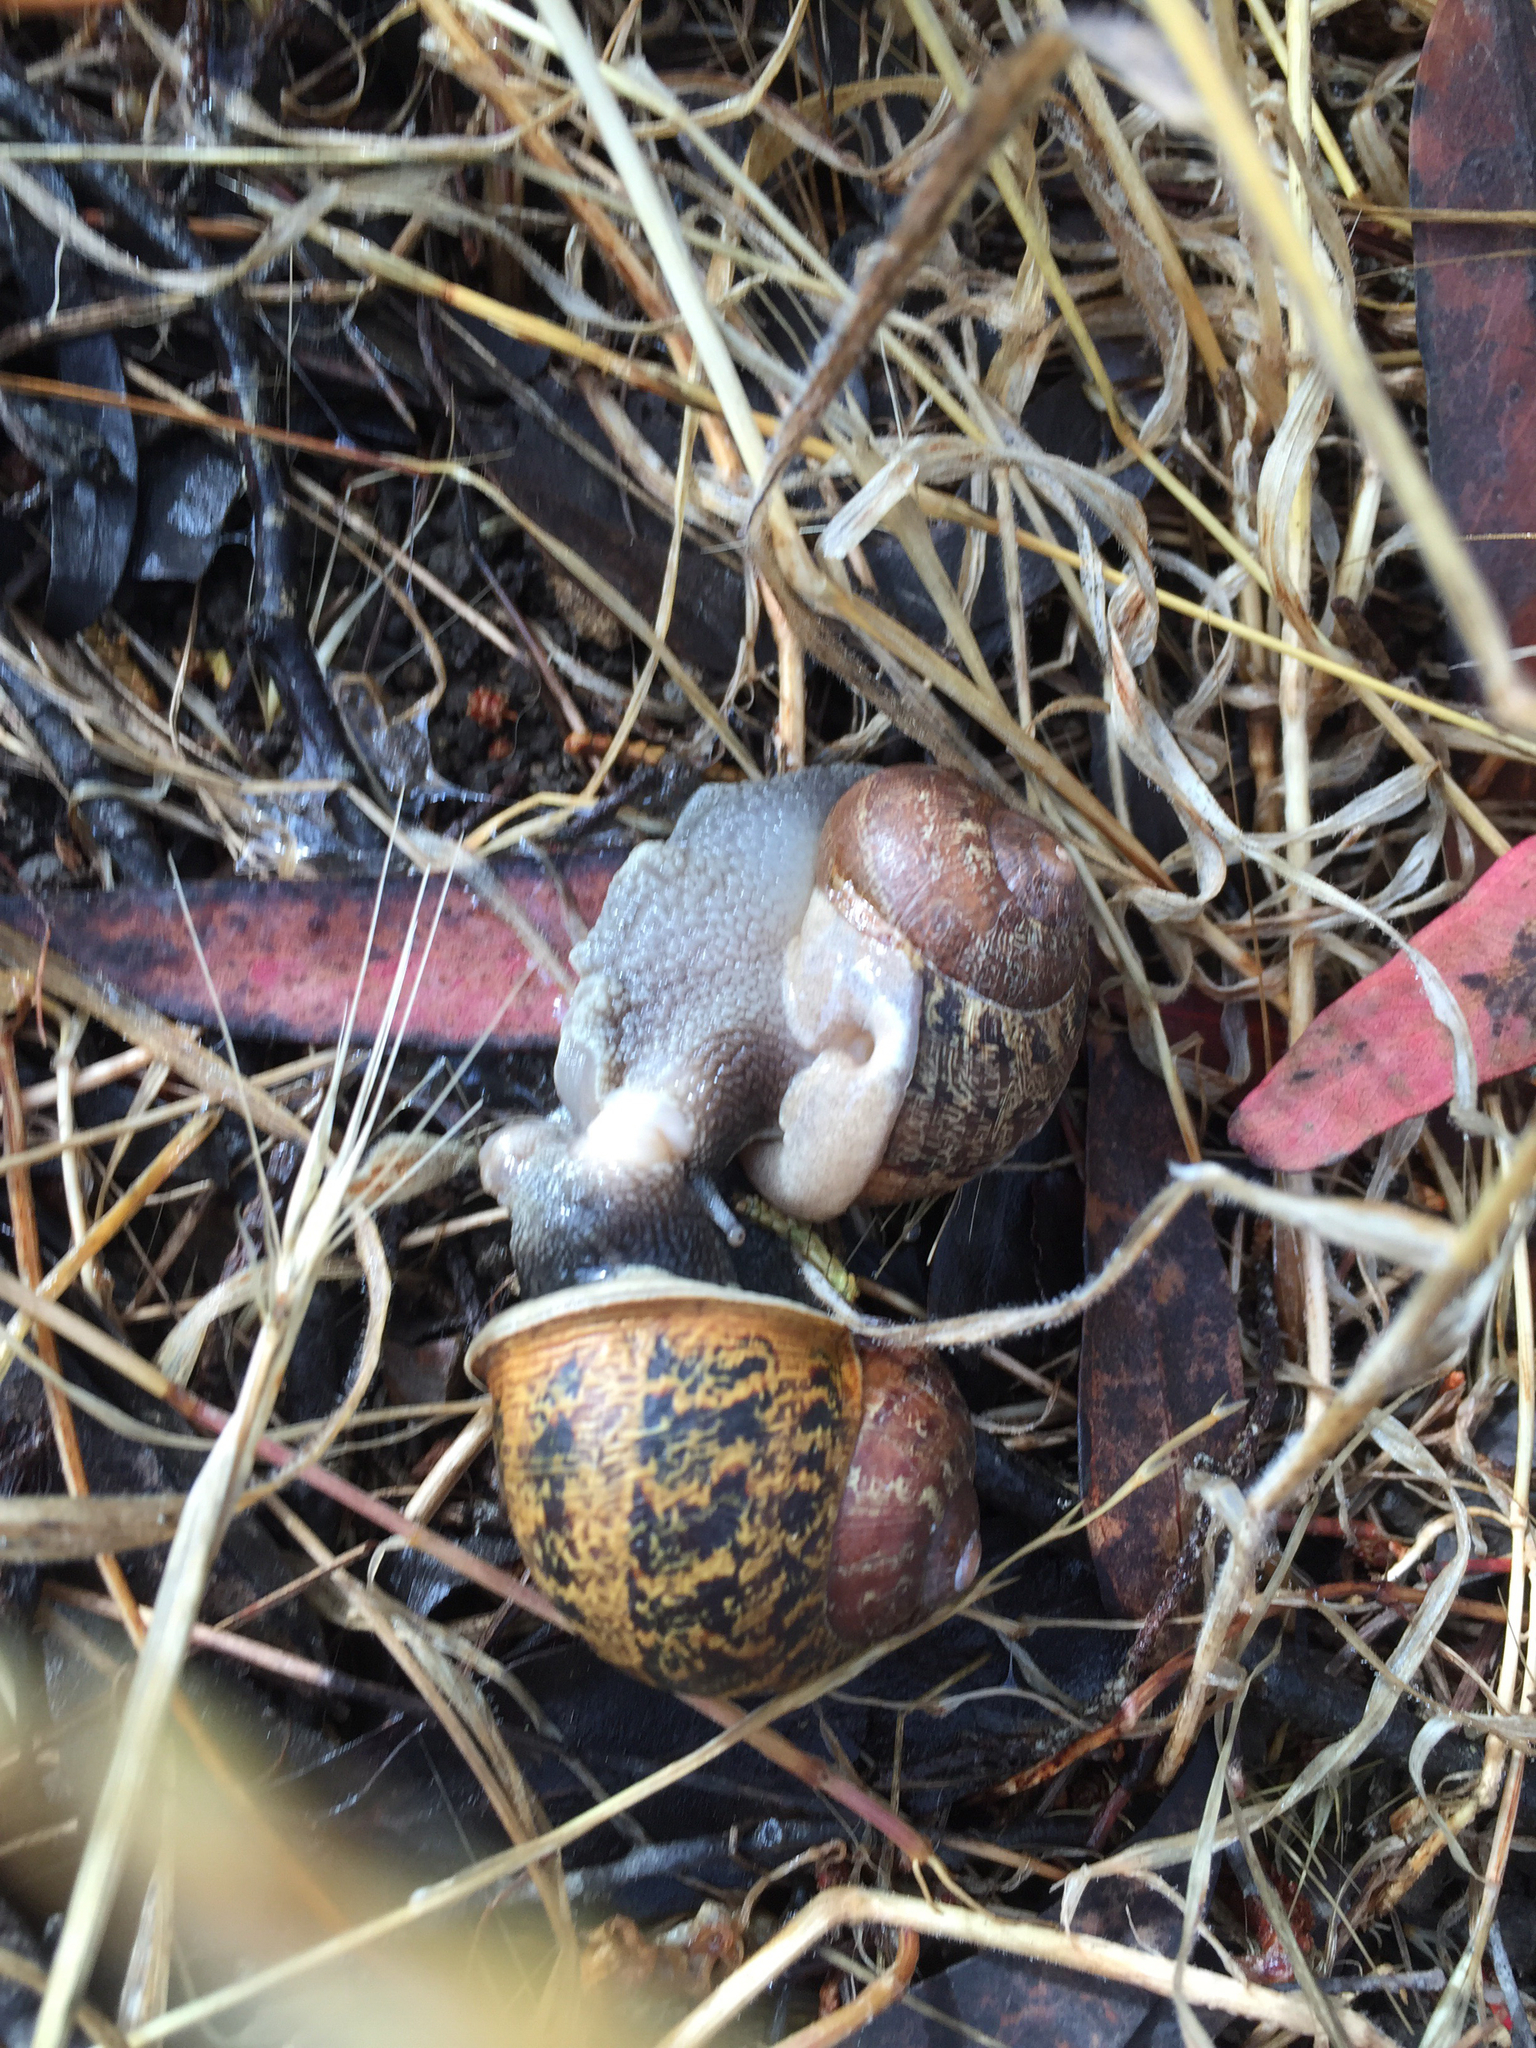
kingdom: Animalia
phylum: Mollusca
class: Gastropoda
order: Stylommatophora
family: Helicidae
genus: Cornu
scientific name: Cornu aspersum
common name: Brown garden snail
